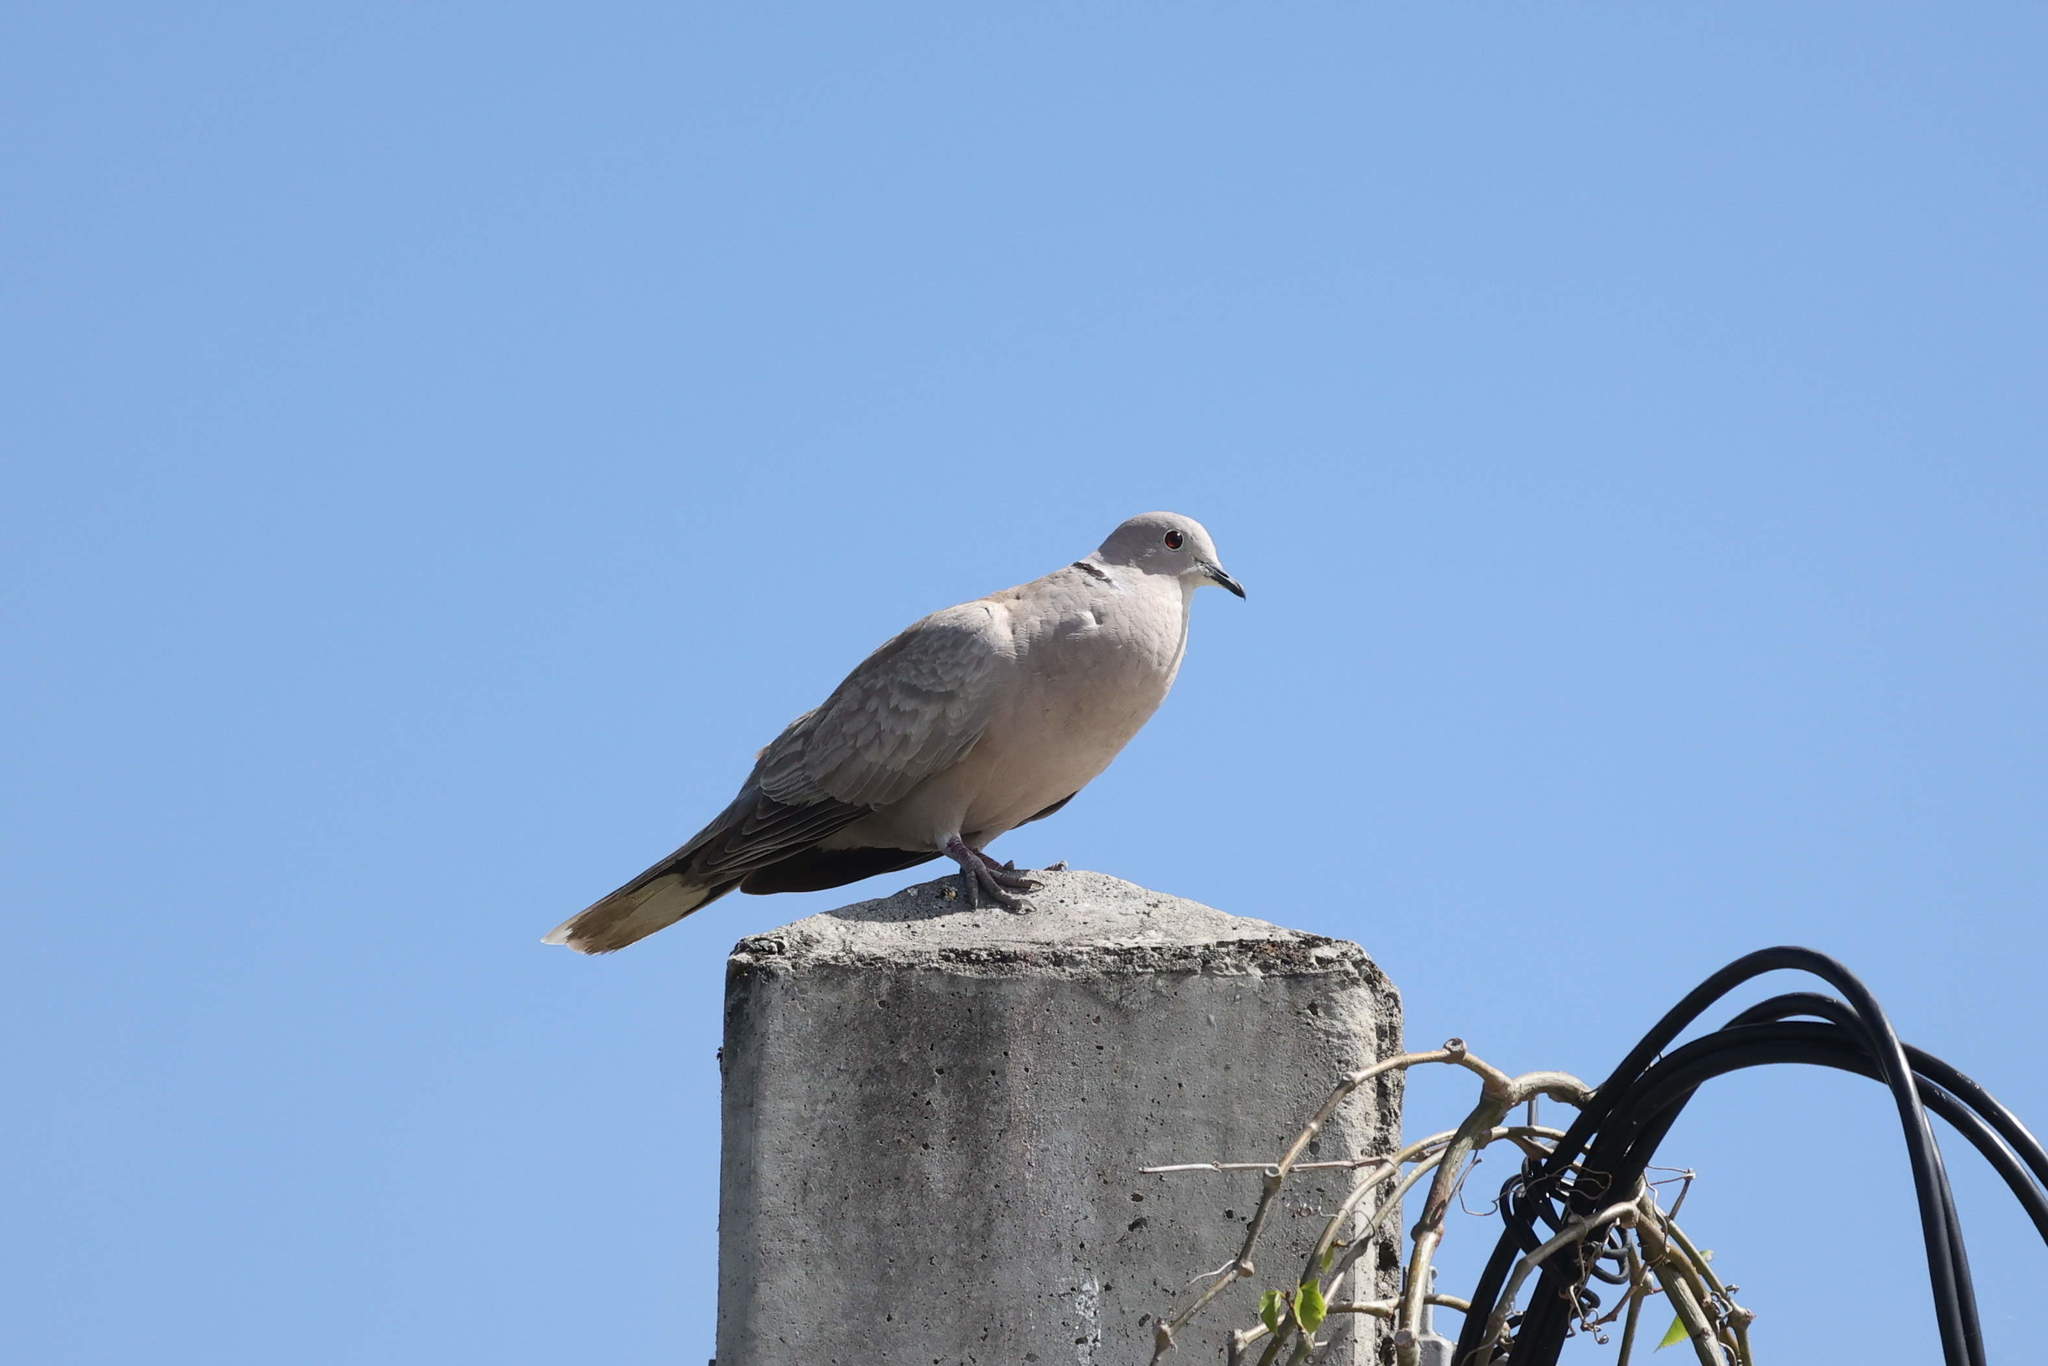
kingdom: Animalia
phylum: Chordata
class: Aves
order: Columbiformes
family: Columbidae
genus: Streptopelia
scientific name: Streptopelia decaocto
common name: Eurasian collared dove
